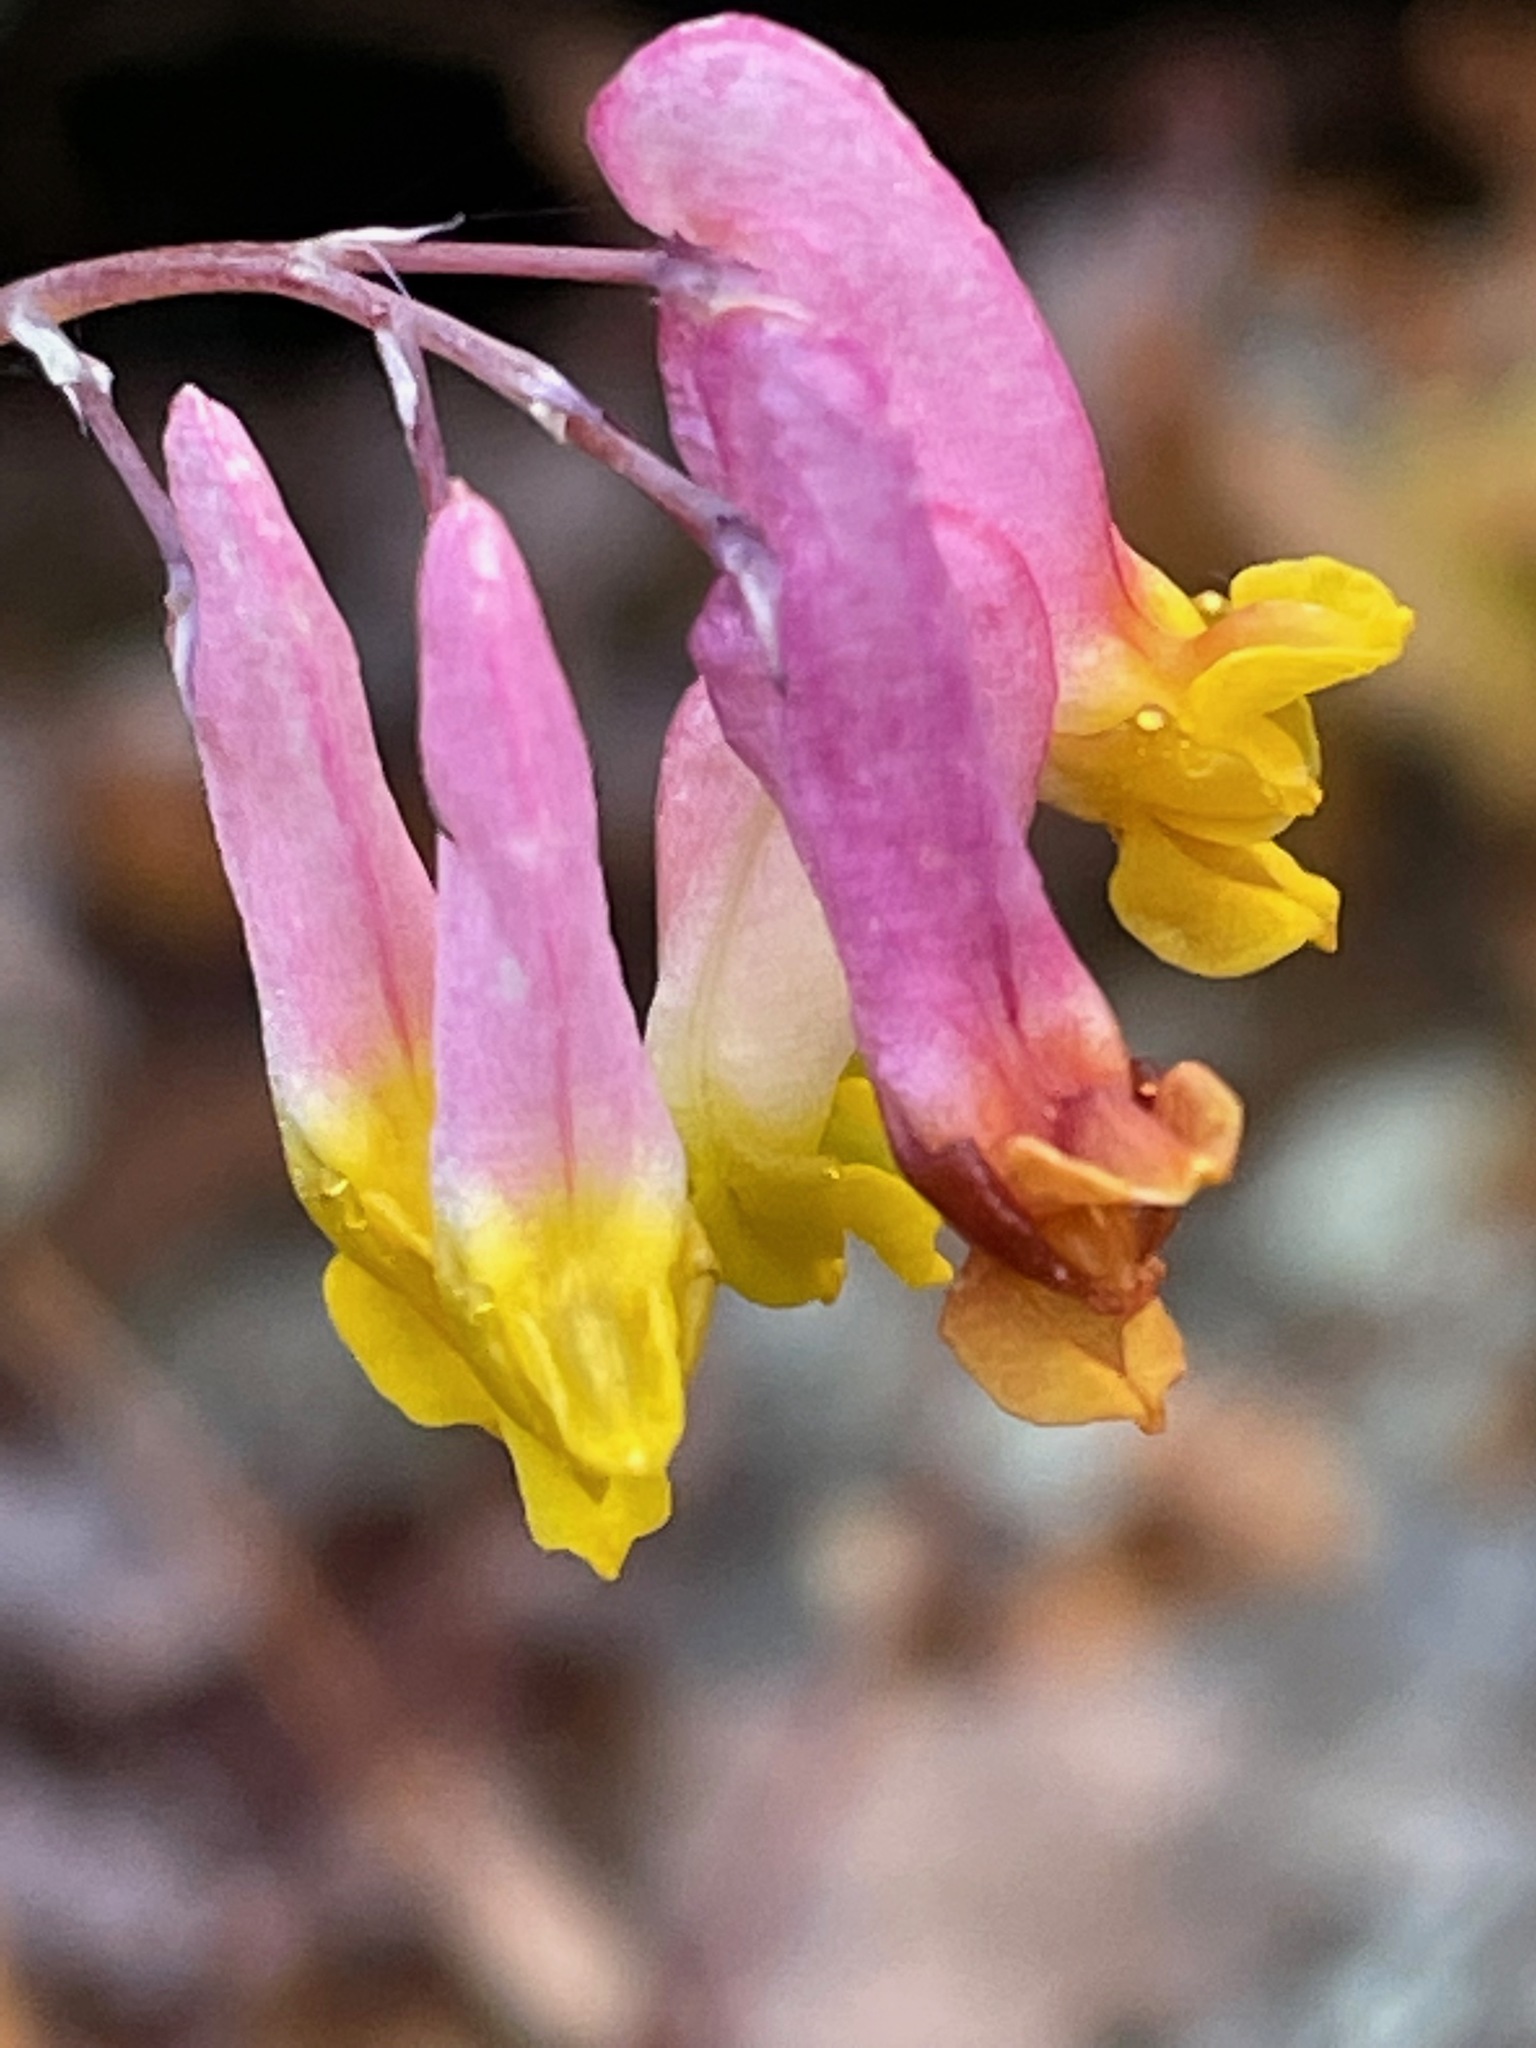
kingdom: Plantae
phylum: Tracheophyta
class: Magnoliopsida
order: Ranunculales
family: Papaveraceae
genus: Capnoides
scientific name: Capnoides sempervirens
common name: Rock harlequin
